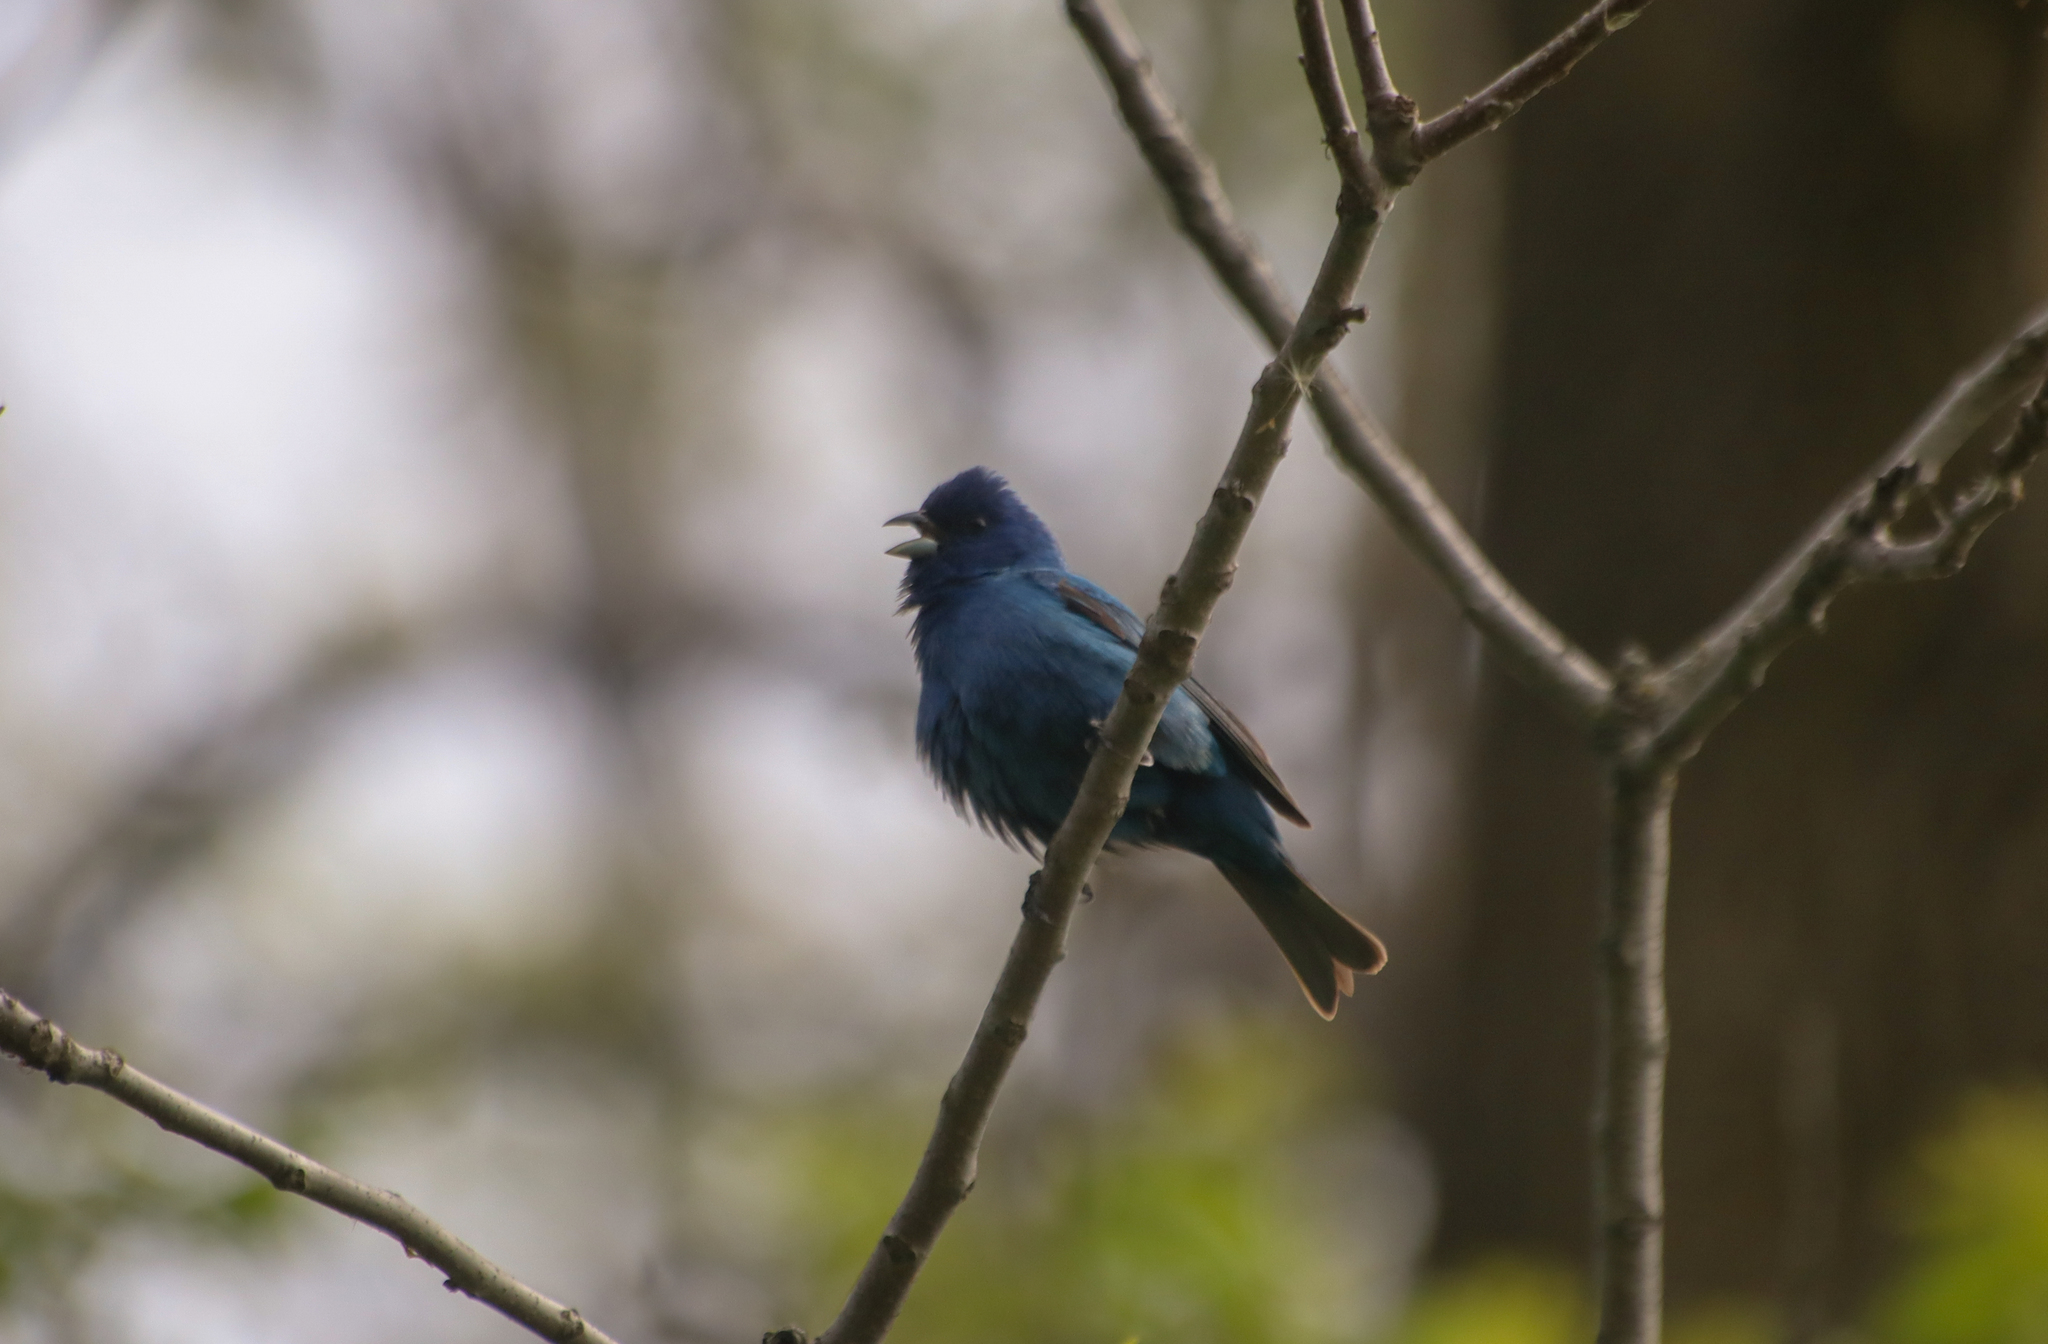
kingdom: Animalia
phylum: Chordata
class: Aves
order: Passeriformes
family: Cardinalidae
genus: Passerina
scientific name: Passerina cyanea
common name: Indigo bunting
